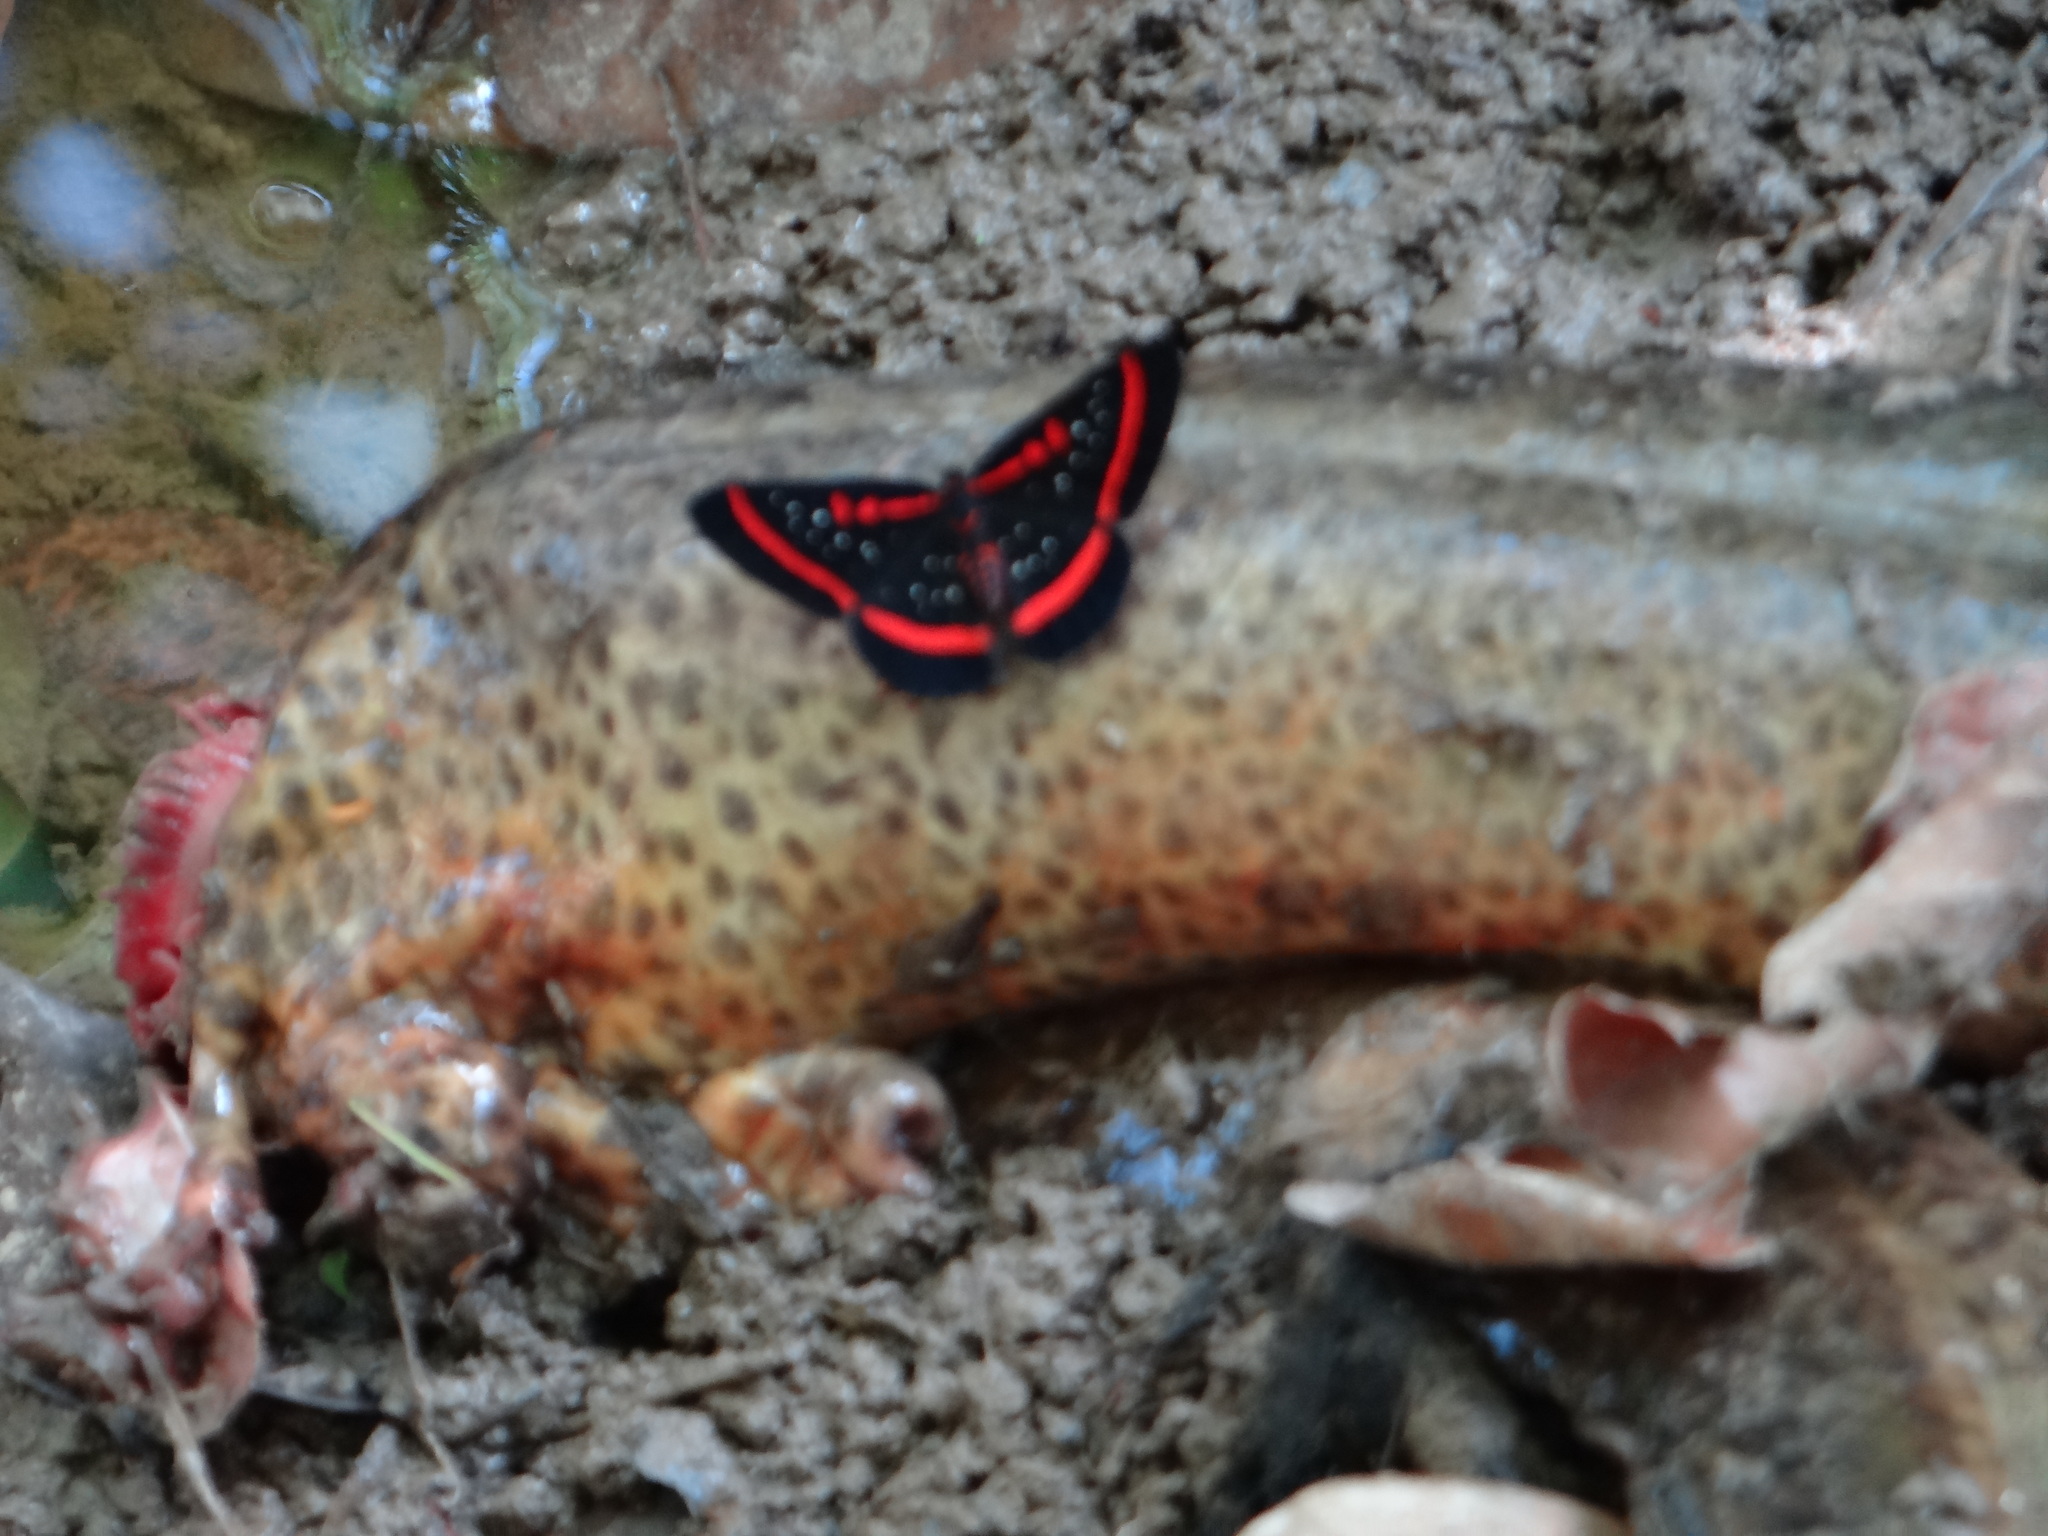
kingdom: Animalia
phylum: Arthropoda
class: Insecta
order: Lepidoptera
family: Riodinidae
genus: Amarynthis
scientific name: Amarynthis meneria
